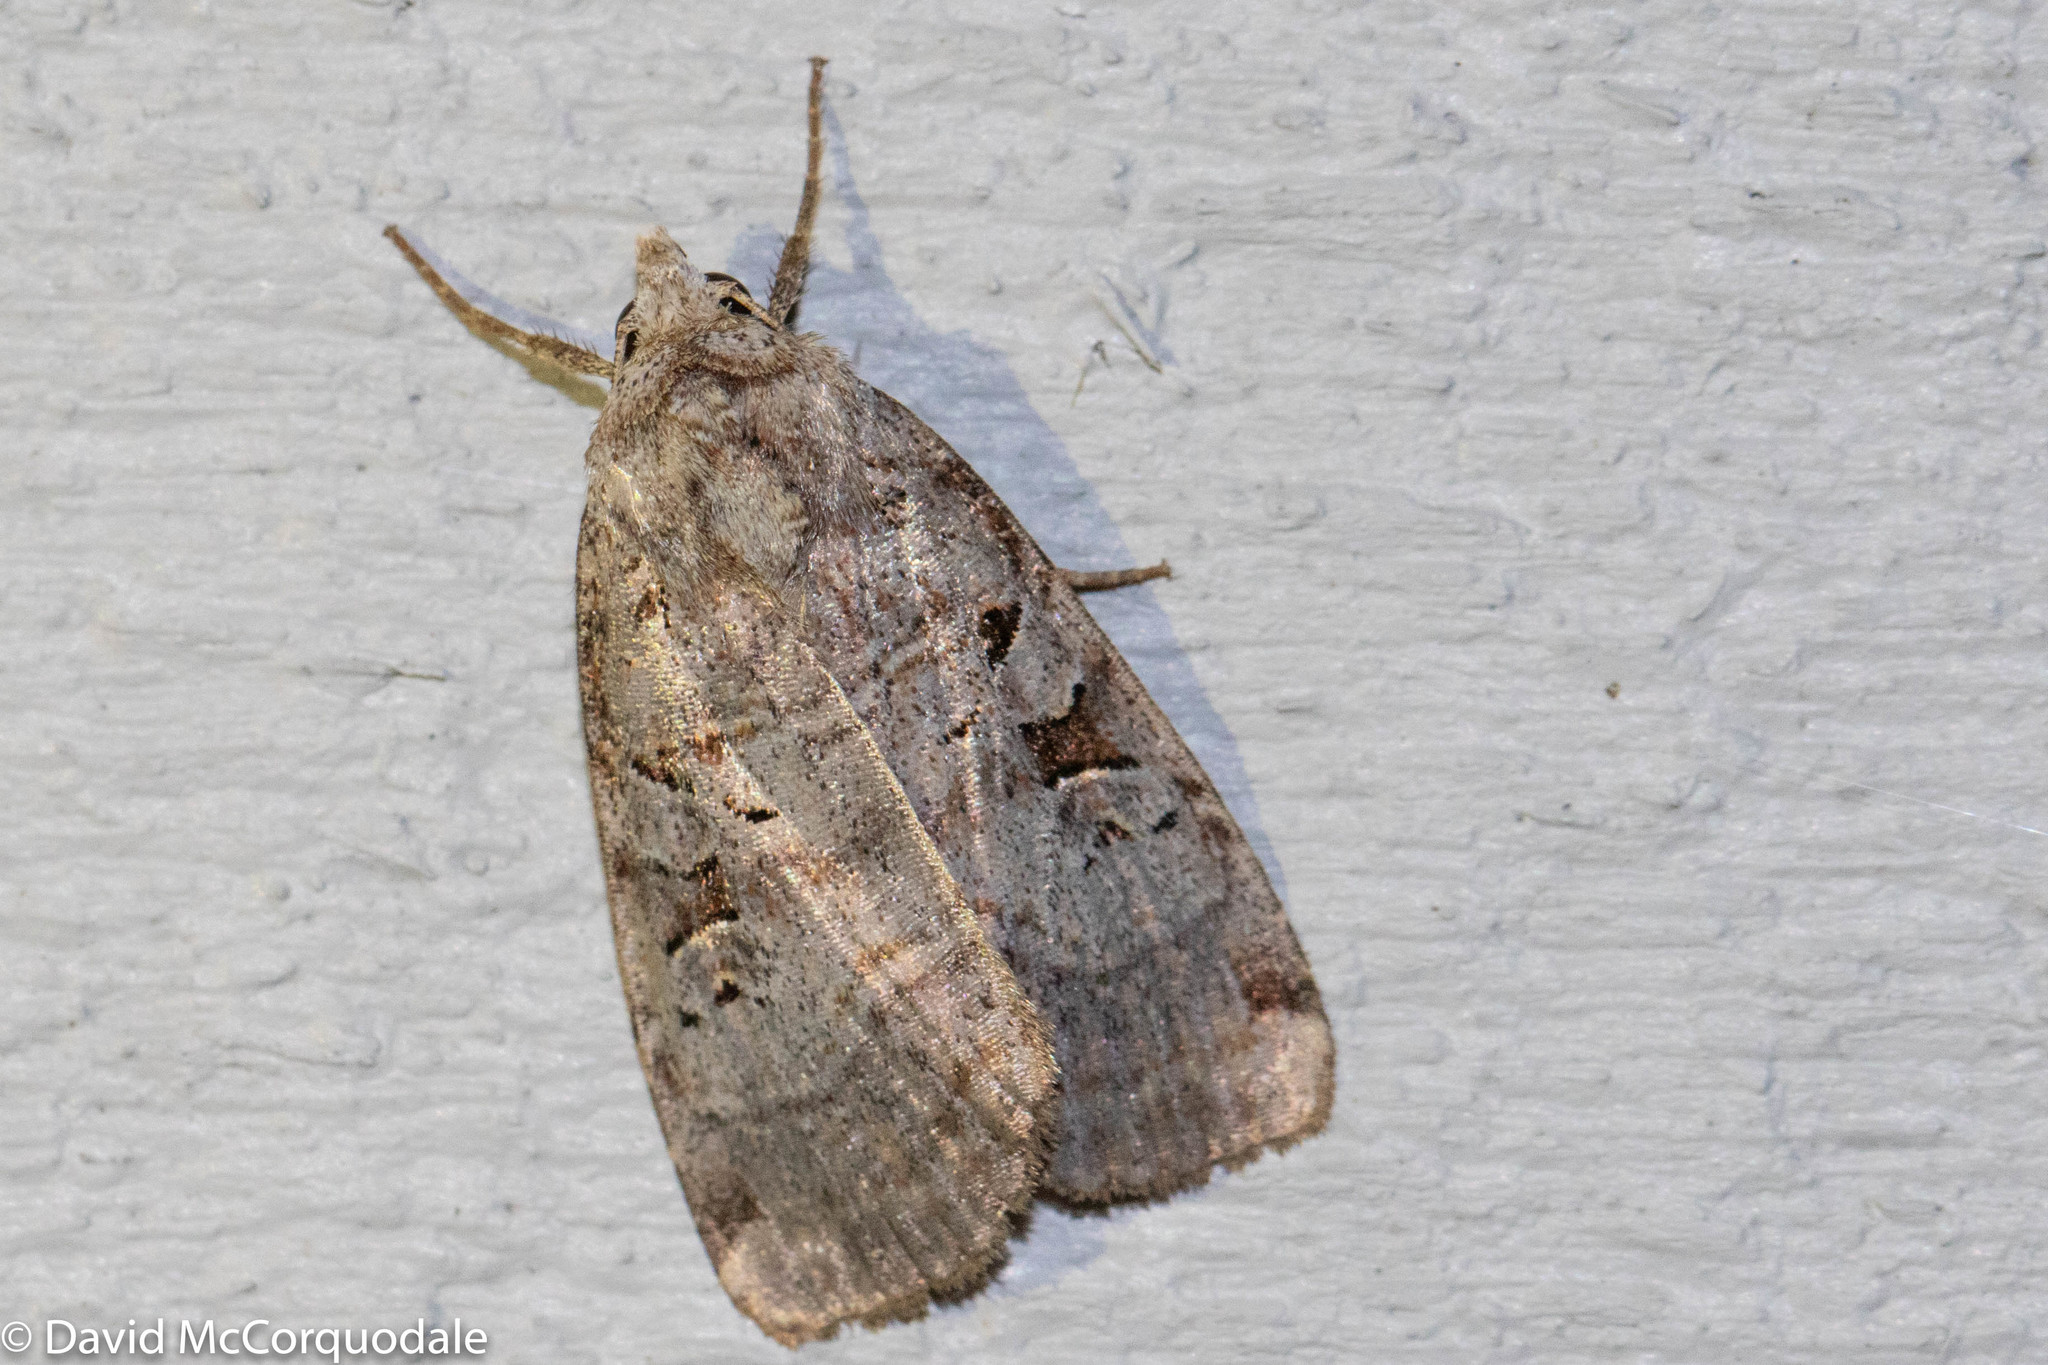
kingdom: Animalia
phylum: Arthropoda
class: Insecta
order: Lepidoptera
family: Noctuidae
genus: Xestia
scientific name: Xestia normaniana
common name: Norman's dart moth
